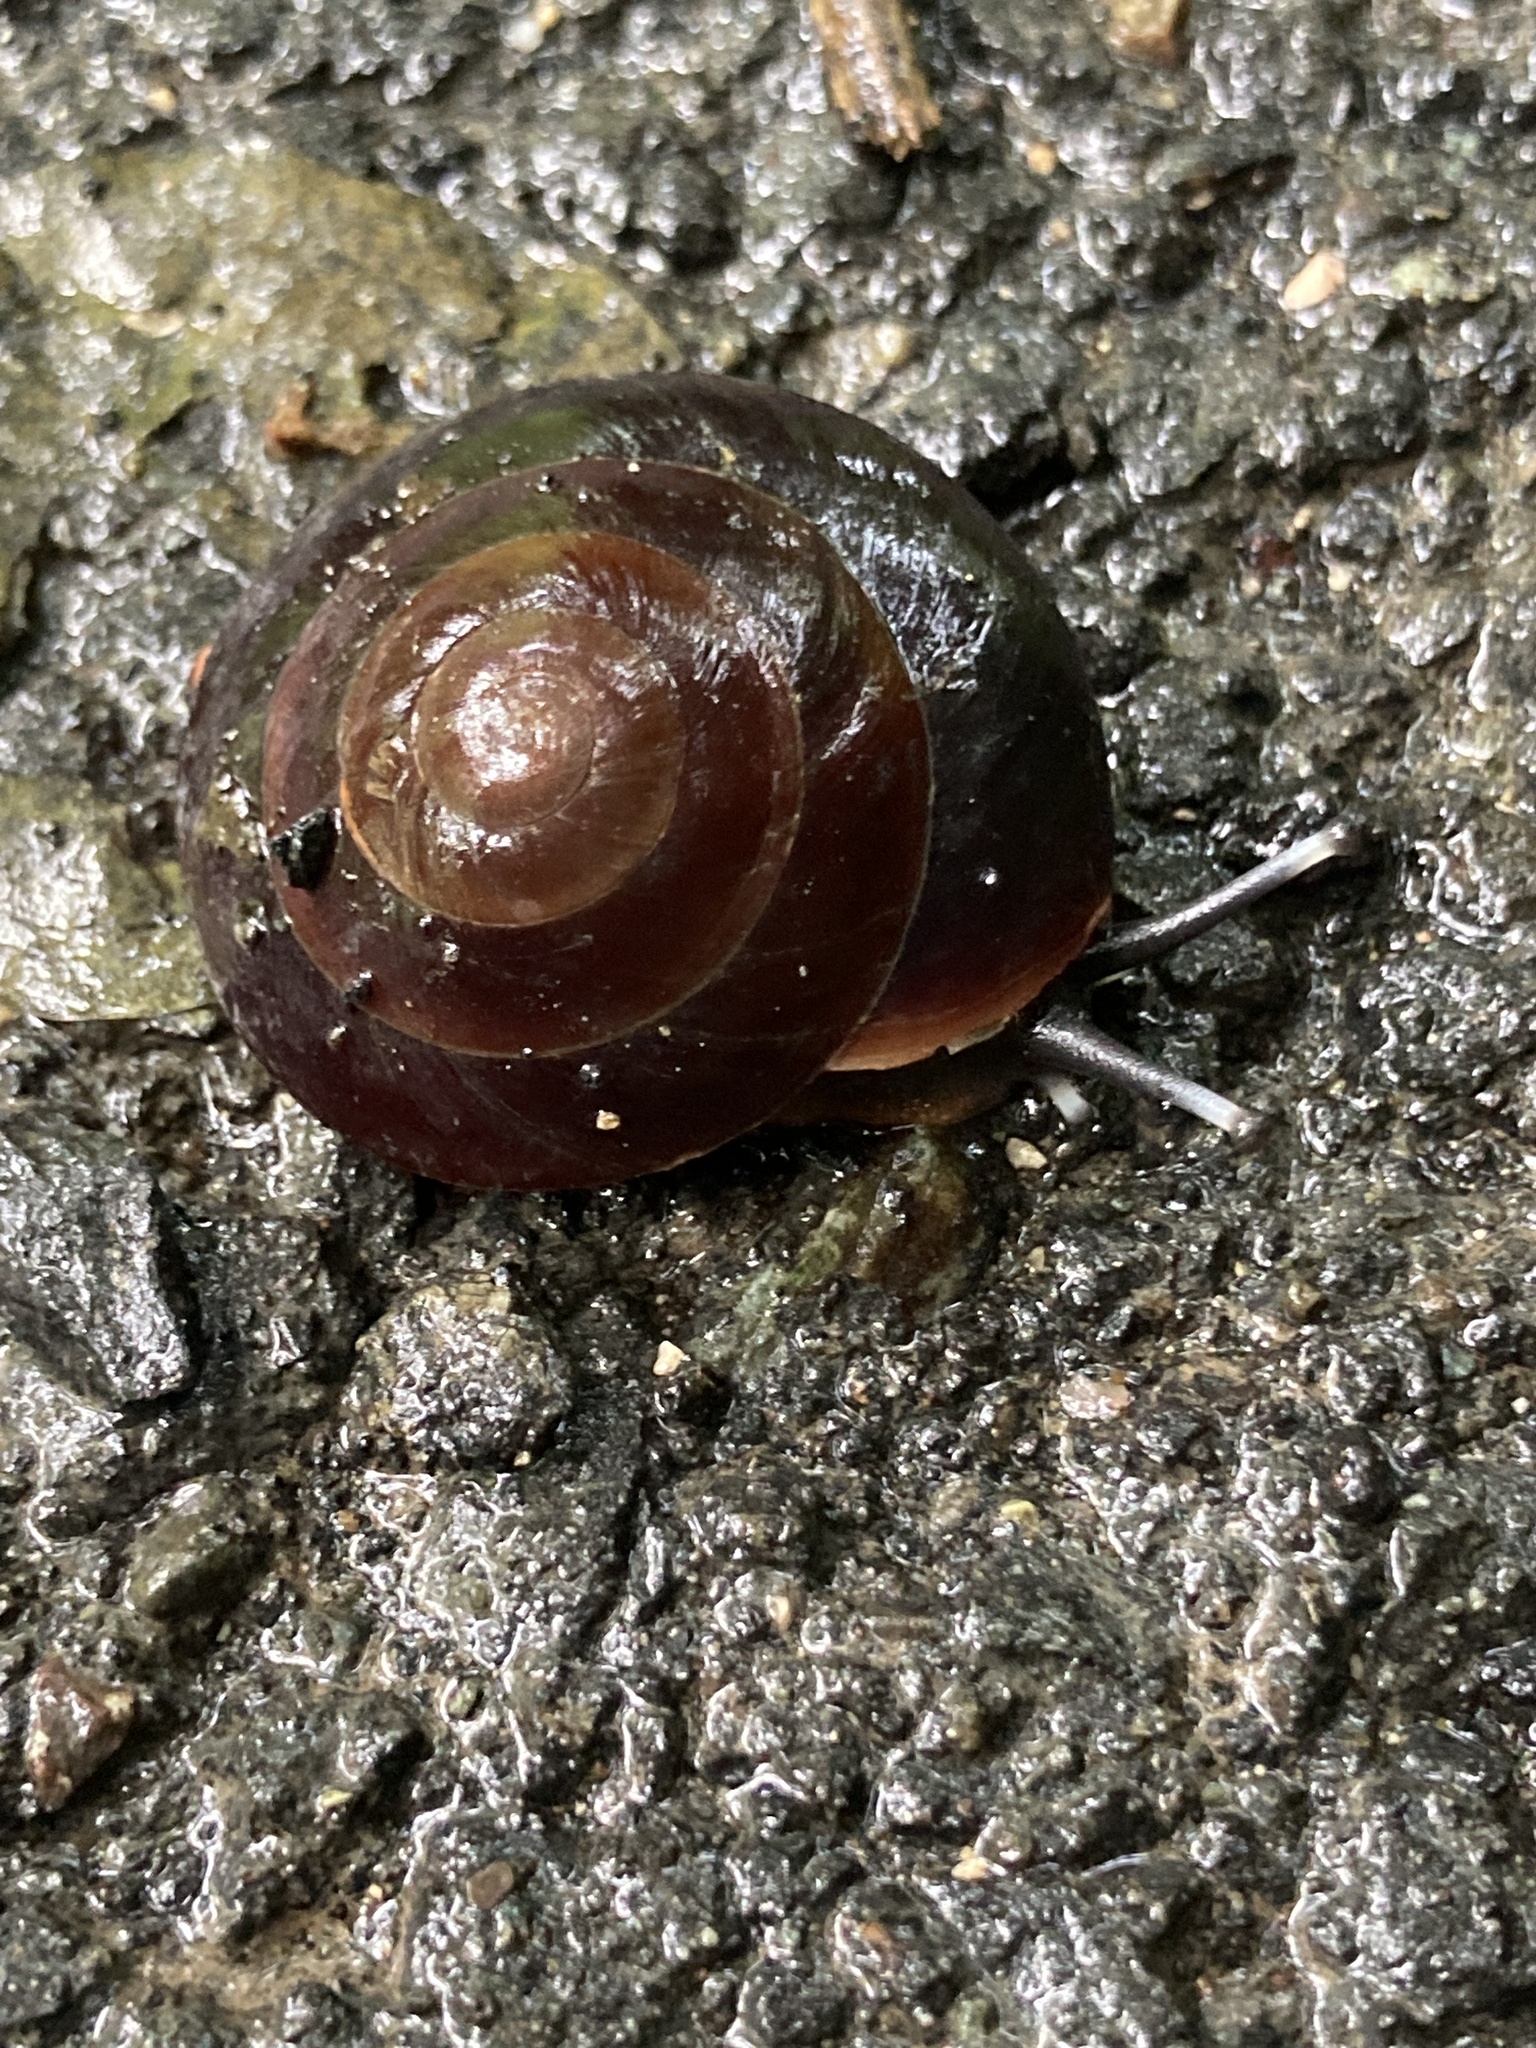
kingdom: Animalia
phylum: Mollusca
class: Gastropoda
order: Stylommatophora
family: Solaropsidae
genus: Caracolus
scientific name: Caracolus excellens
